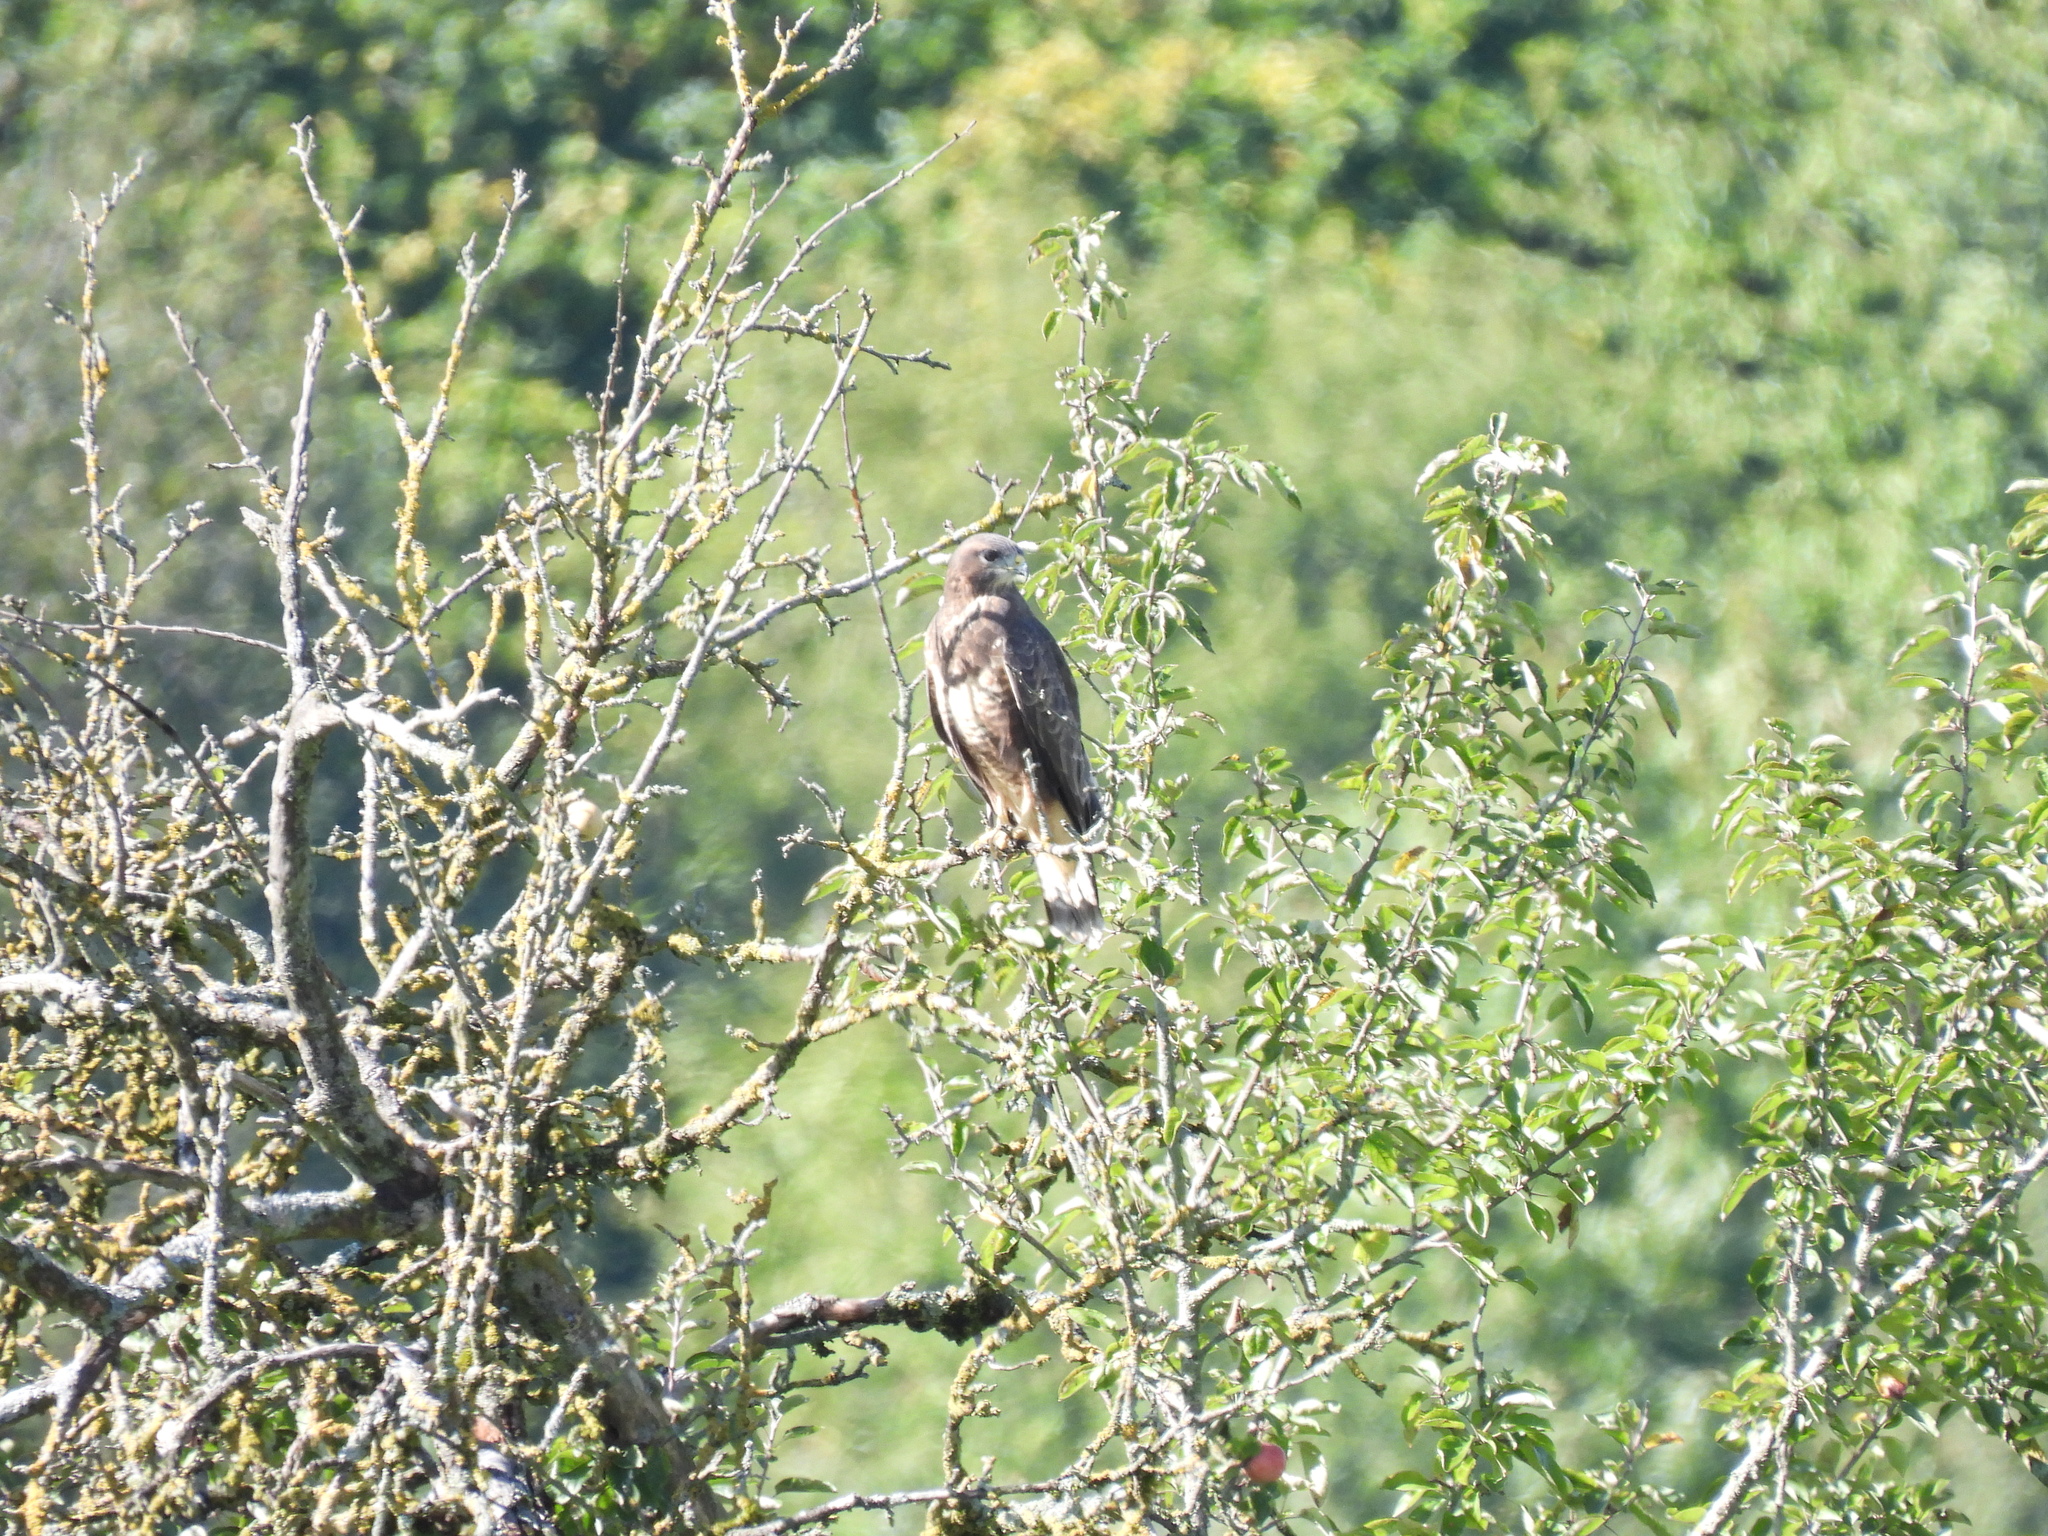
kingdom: Animalia
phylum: Chordata
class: Aves
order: Accipitriformes
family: Accipitridae
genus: Buteo
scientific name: Buteo buteo
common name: Common buzzard
